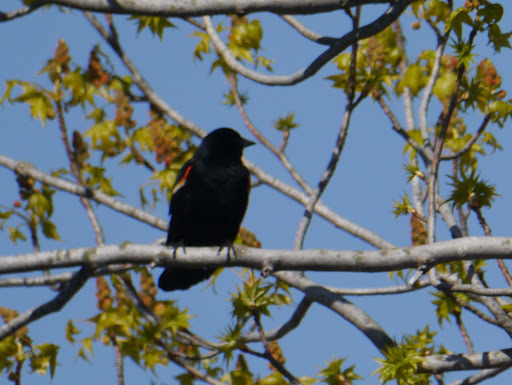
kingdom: Animalia
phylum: Chordata
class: Aves
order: Passeriformes
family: Icteridae
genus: Agelaius
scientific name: Agelaius phoeniceus
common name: Red-winged blackbird
